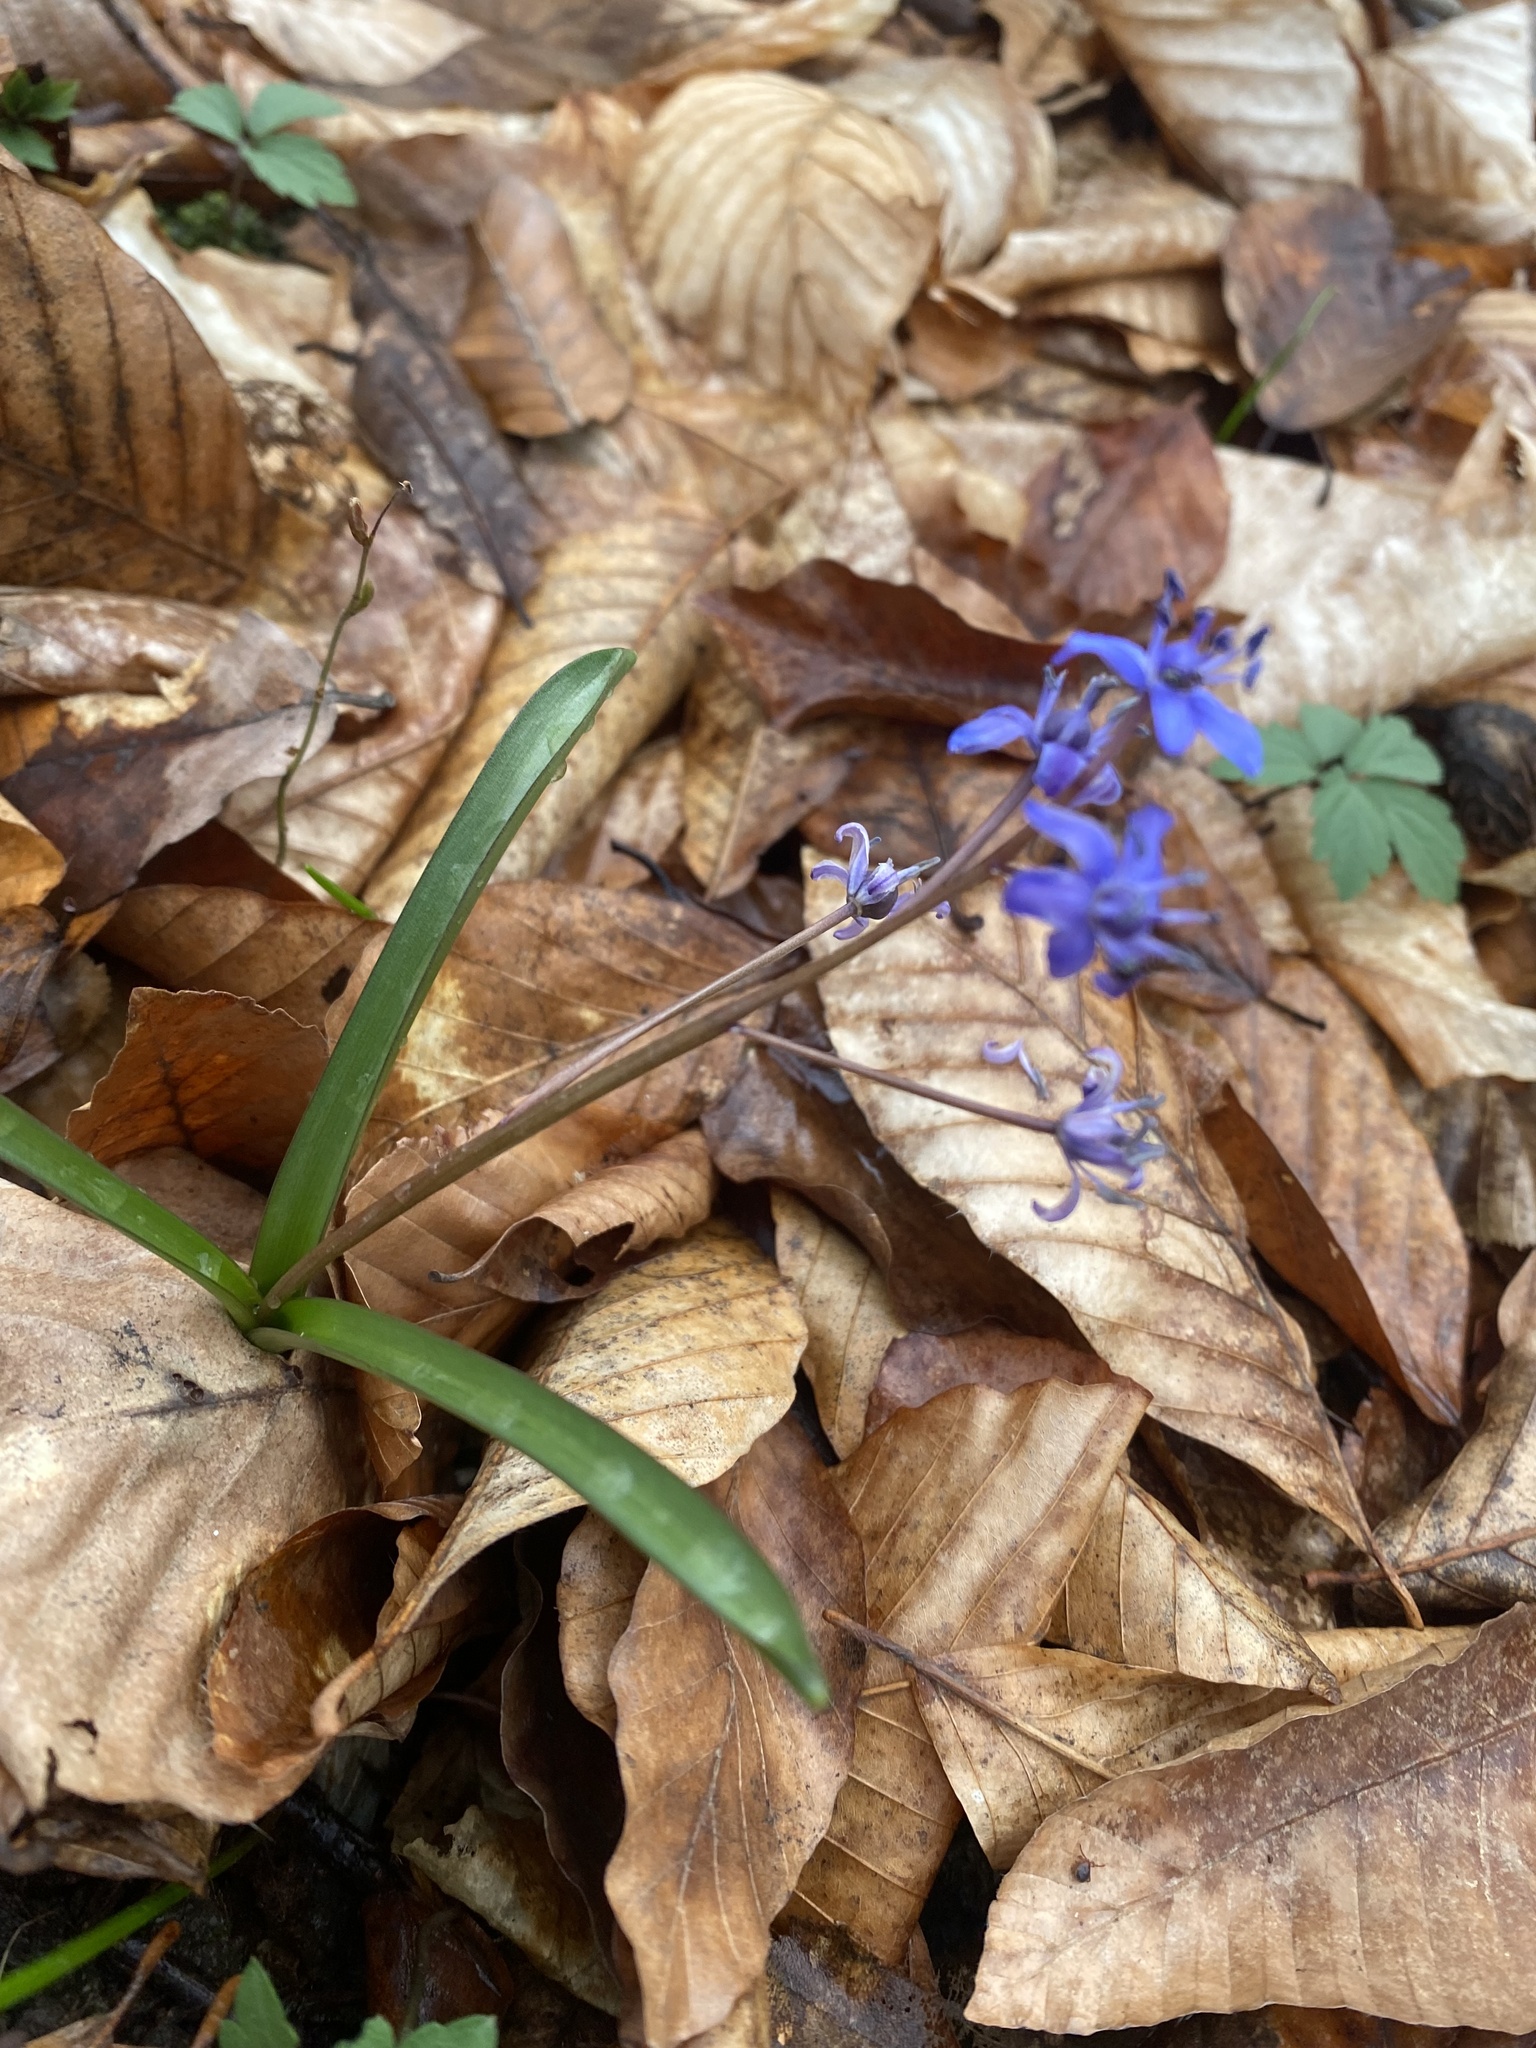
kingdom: Plantae
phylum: Tracheophyta
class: Liliopsida
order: Asparagales
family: Asparagaceae
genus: Scilla
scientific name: Scilla bifolia
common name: Alpine squill
